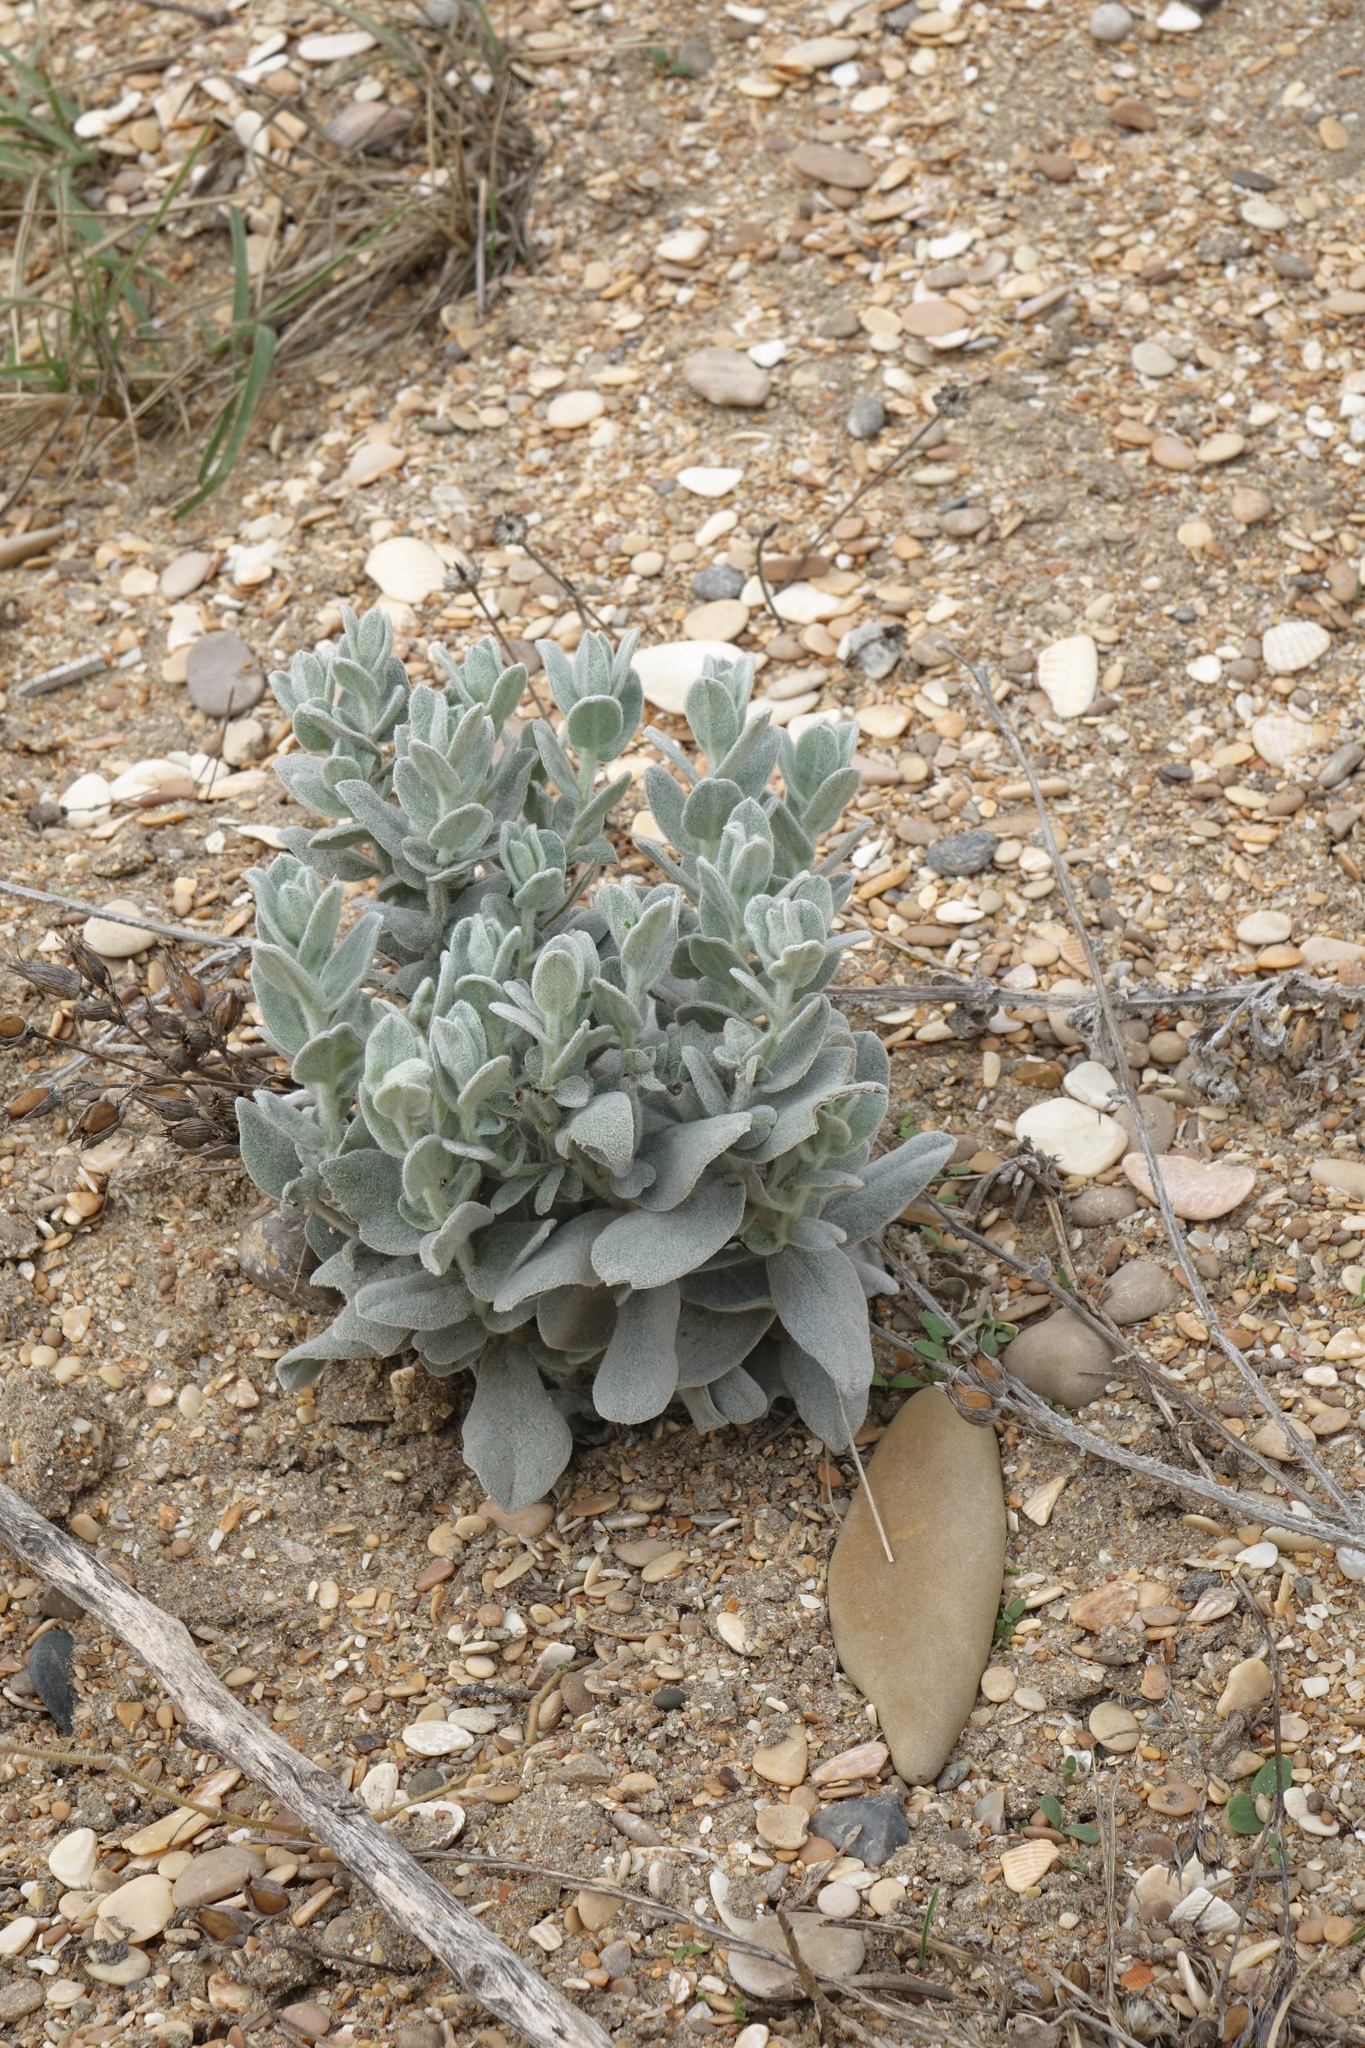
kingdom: Plantae
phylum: Tracheophyta
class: Magnoliopsida
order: Solanales
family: Convolvulaceae
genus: Convolvulus
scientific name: Convolvulus persicus
